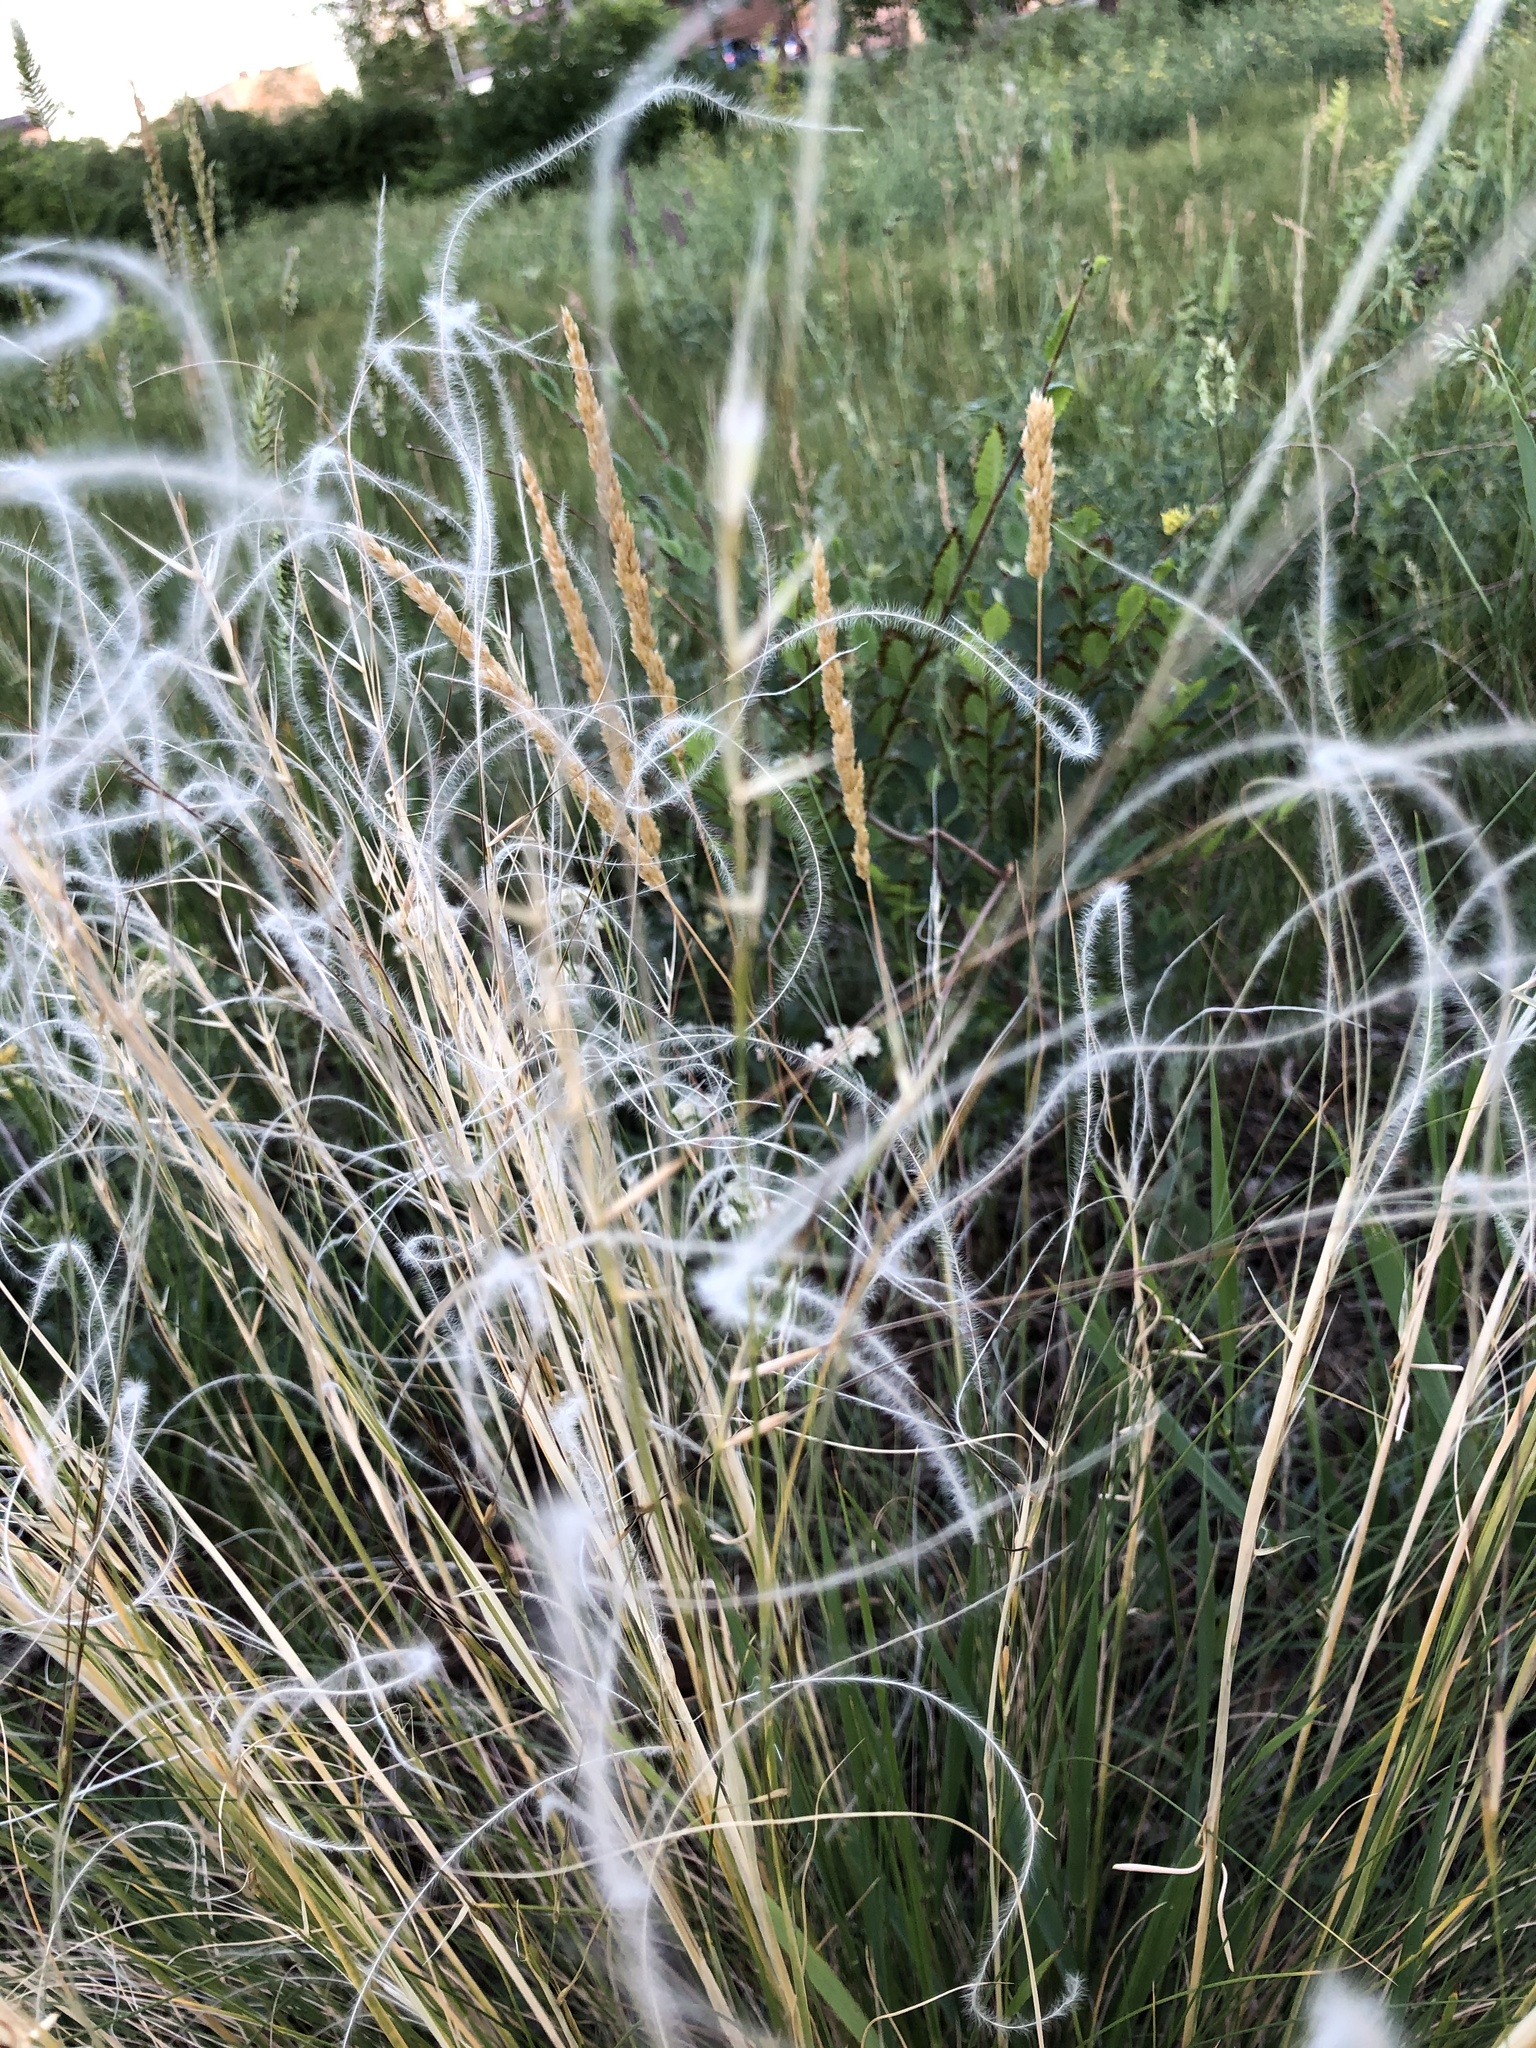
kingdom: Plantae
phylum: Tracheophyta
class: Liliopsida
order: Poales
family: Poaceae
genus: Stipa
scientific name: Stipa lessingiana
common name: Needle grass
